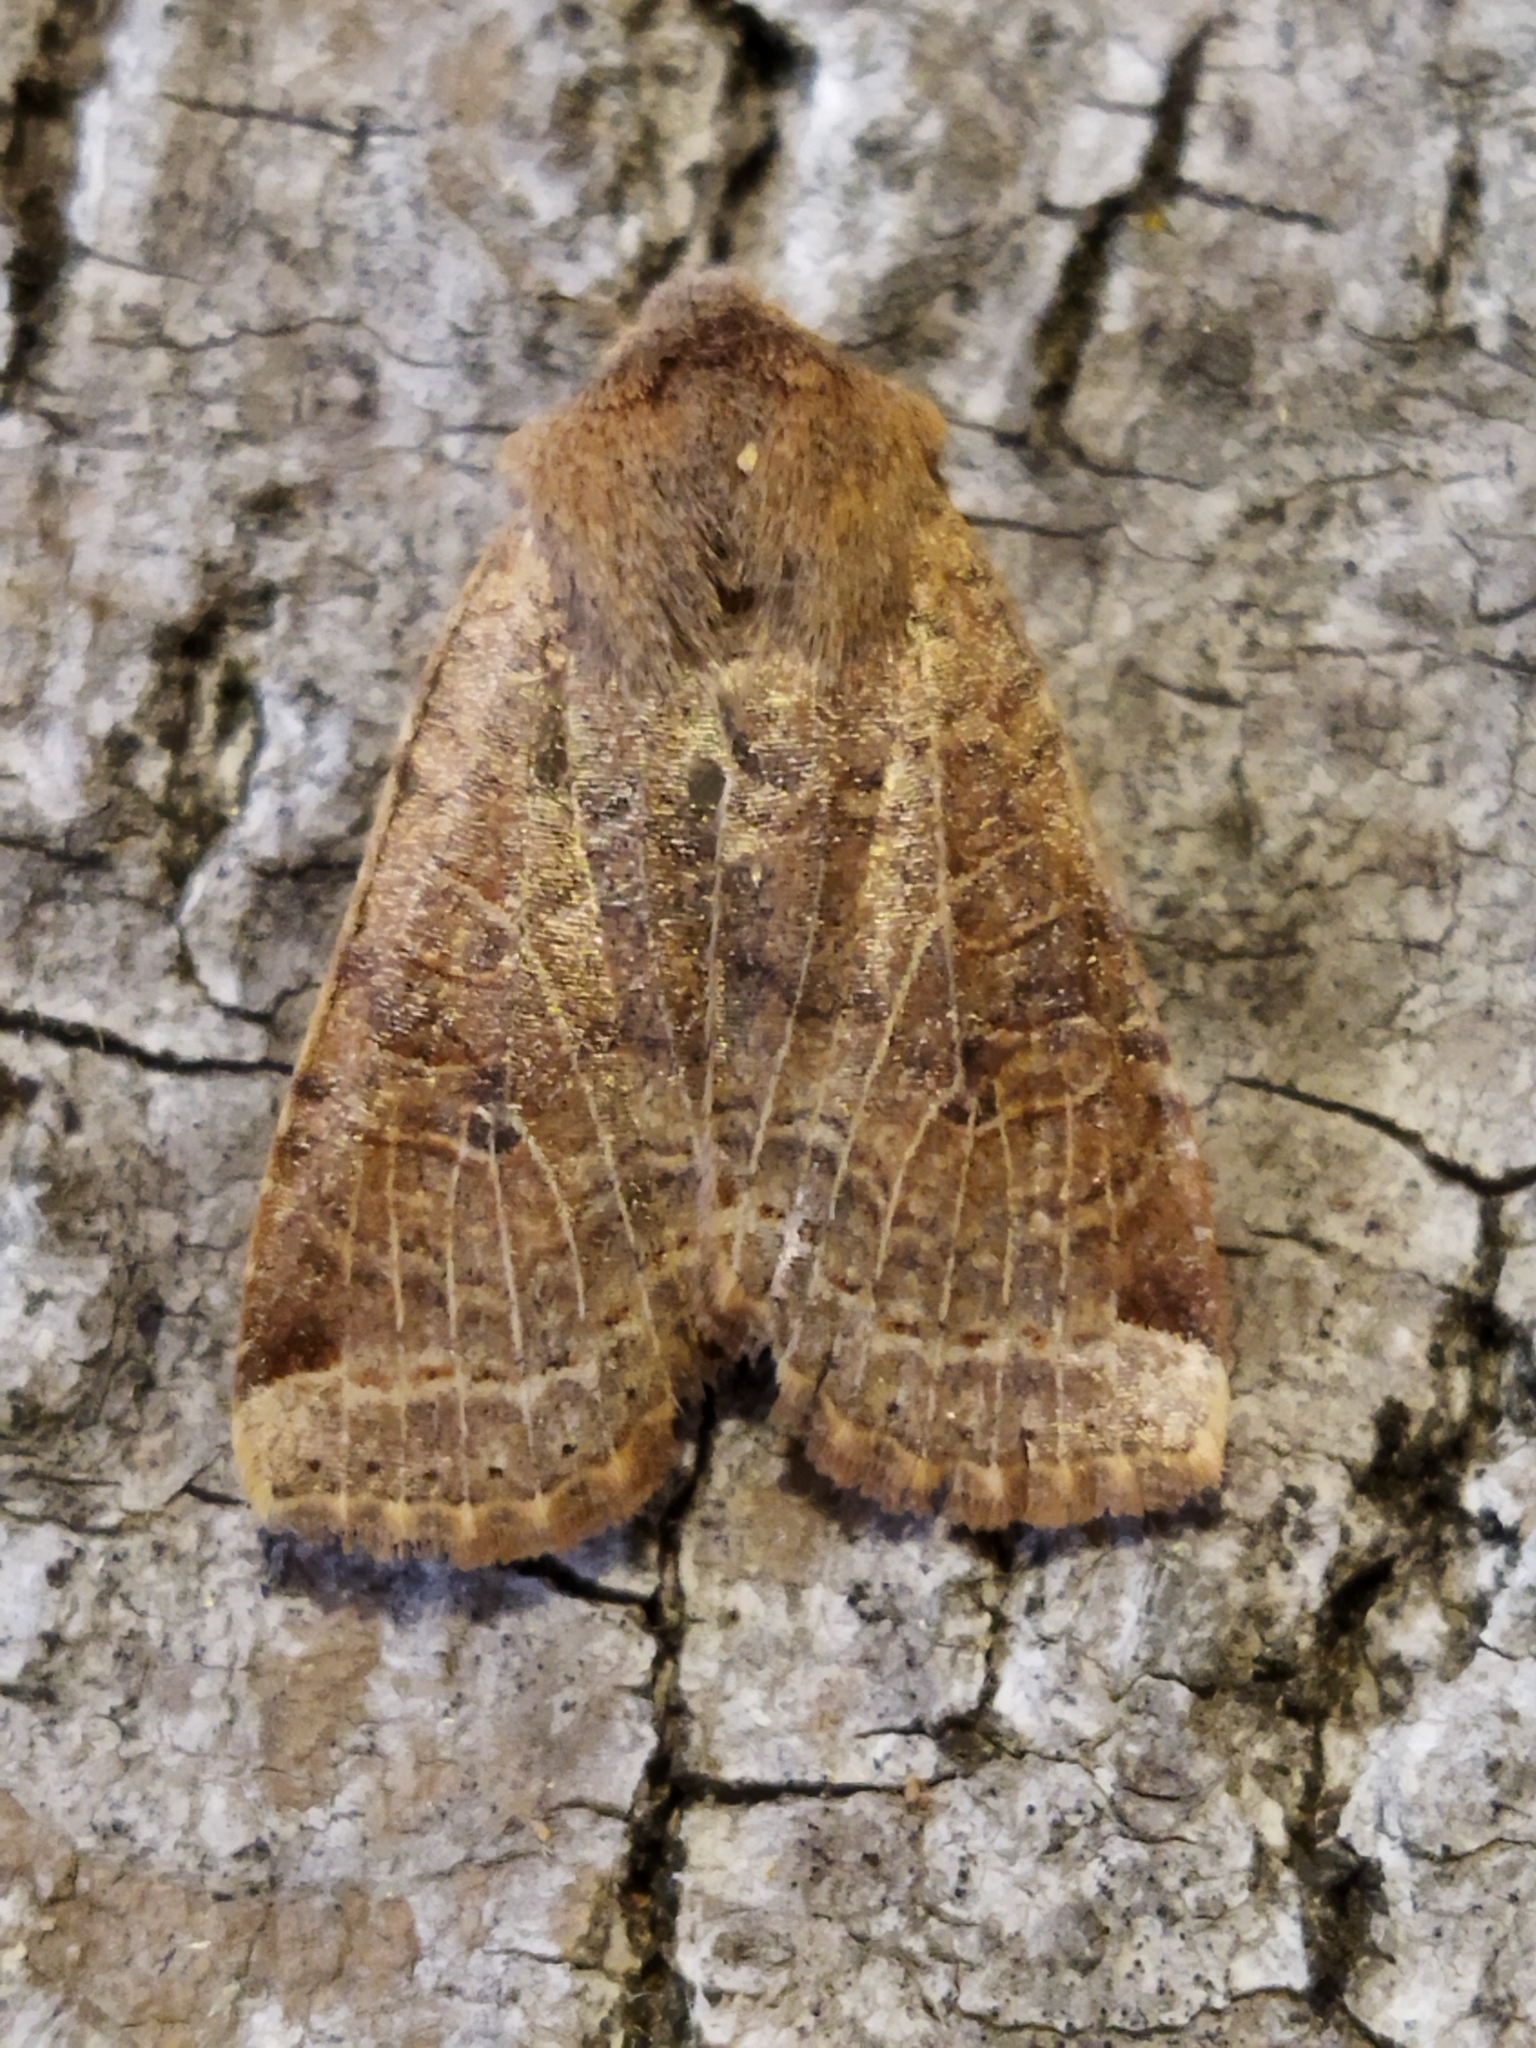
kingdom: Animalia
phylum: Arthropoda
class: Insecta
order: Lepidoptera
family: Noctuidae
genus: Conistra
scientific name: Conistra veronicae
